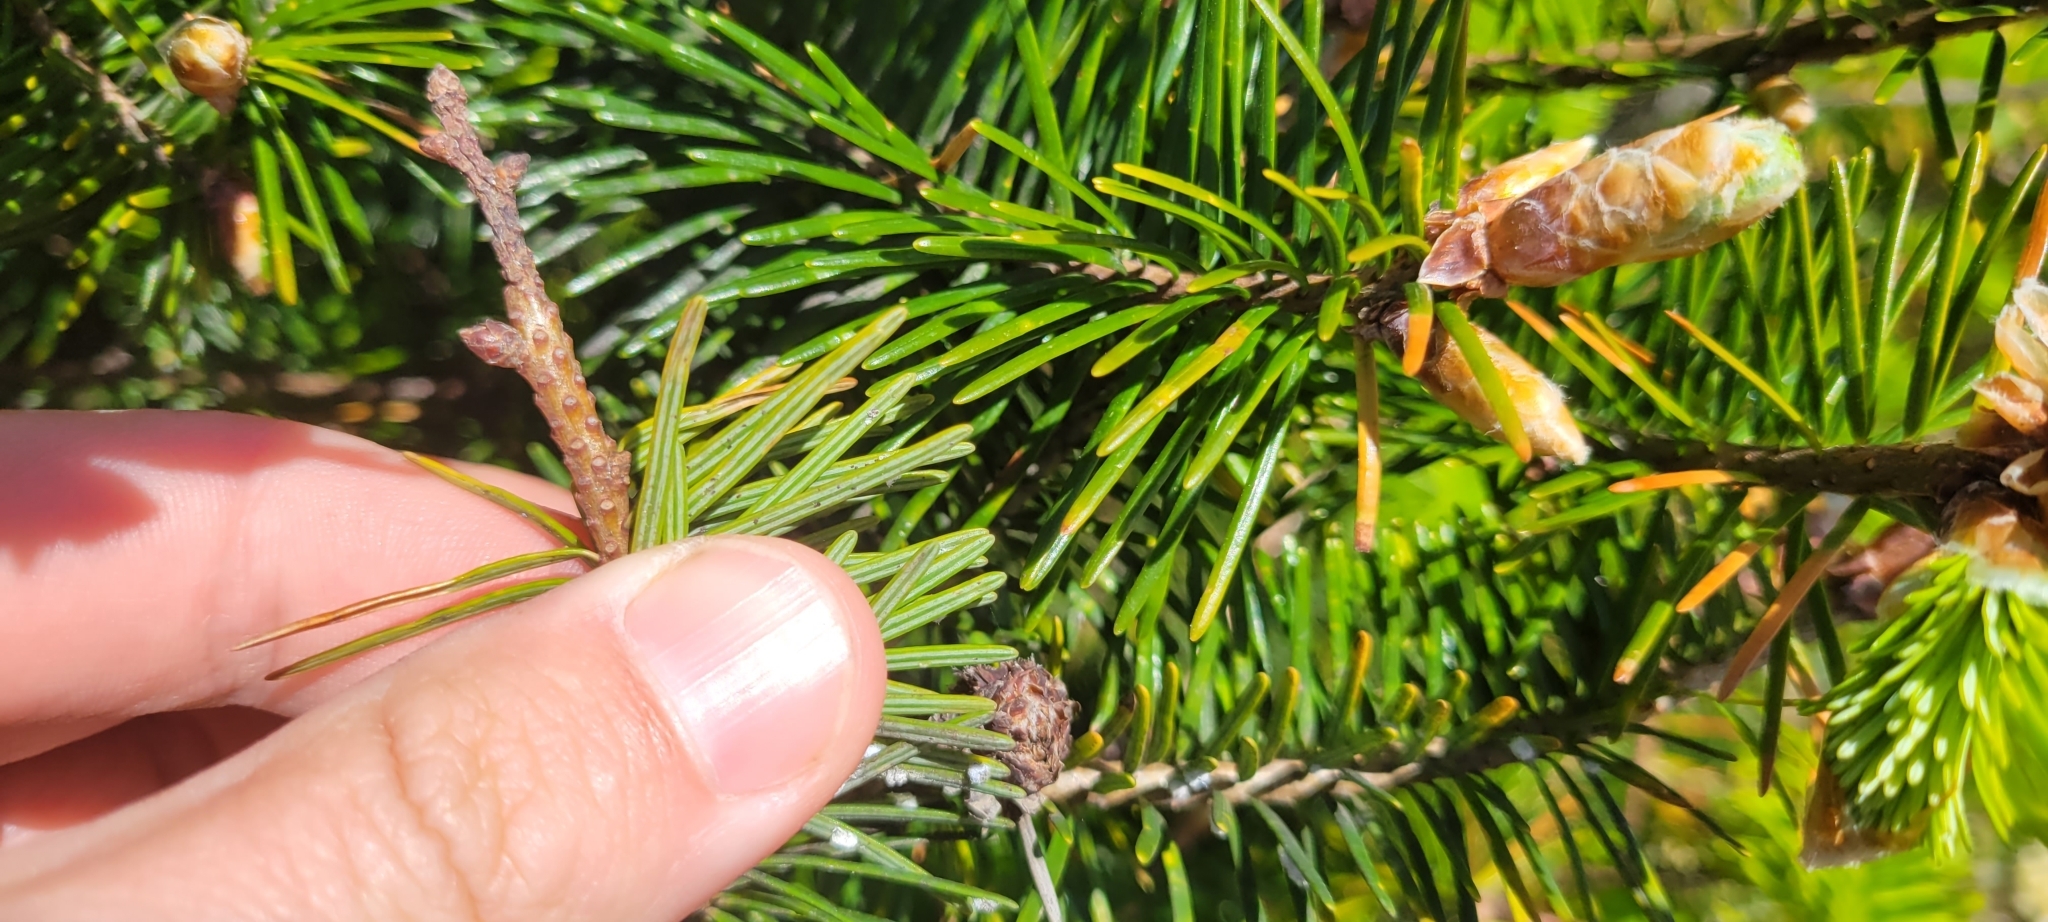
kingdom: Plantae
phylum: Tracheophyta
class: Pinopsida
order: Pinales
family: Pinaceae
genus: Pseudotsuga
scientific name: Pseudotsuga menziesii
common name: Douglas fir
